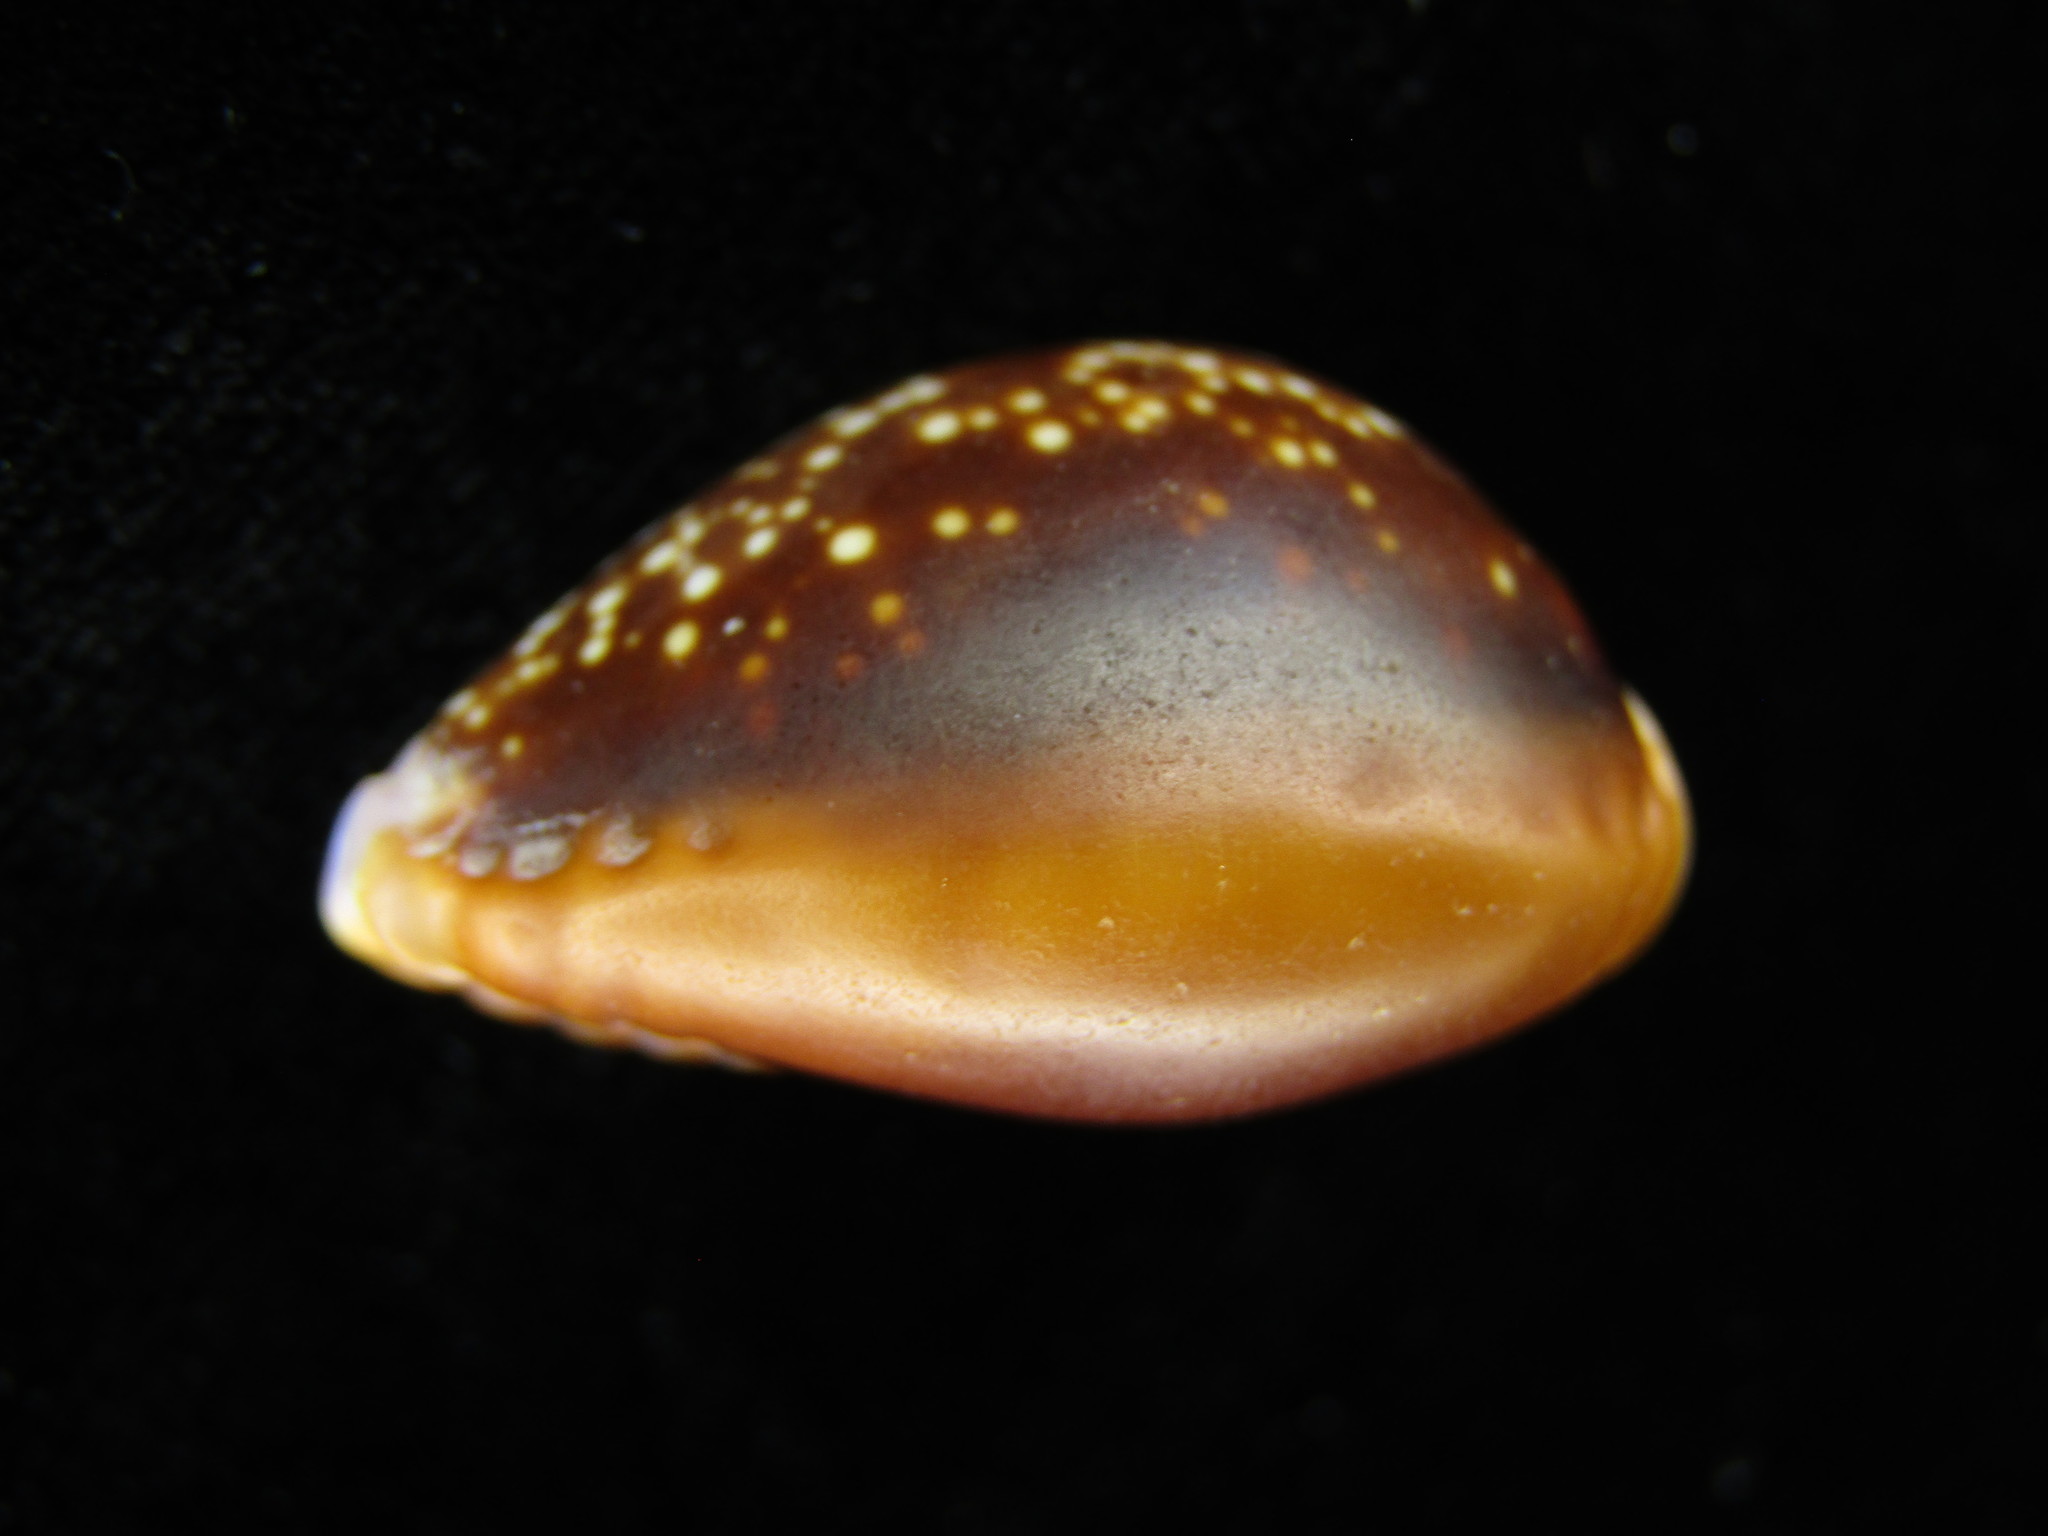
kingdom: Animalia
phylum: Mollusca
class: Gastropoda
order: Littorinimorpha
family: Cypraeidae
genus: Naria
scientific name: Naria helvola
